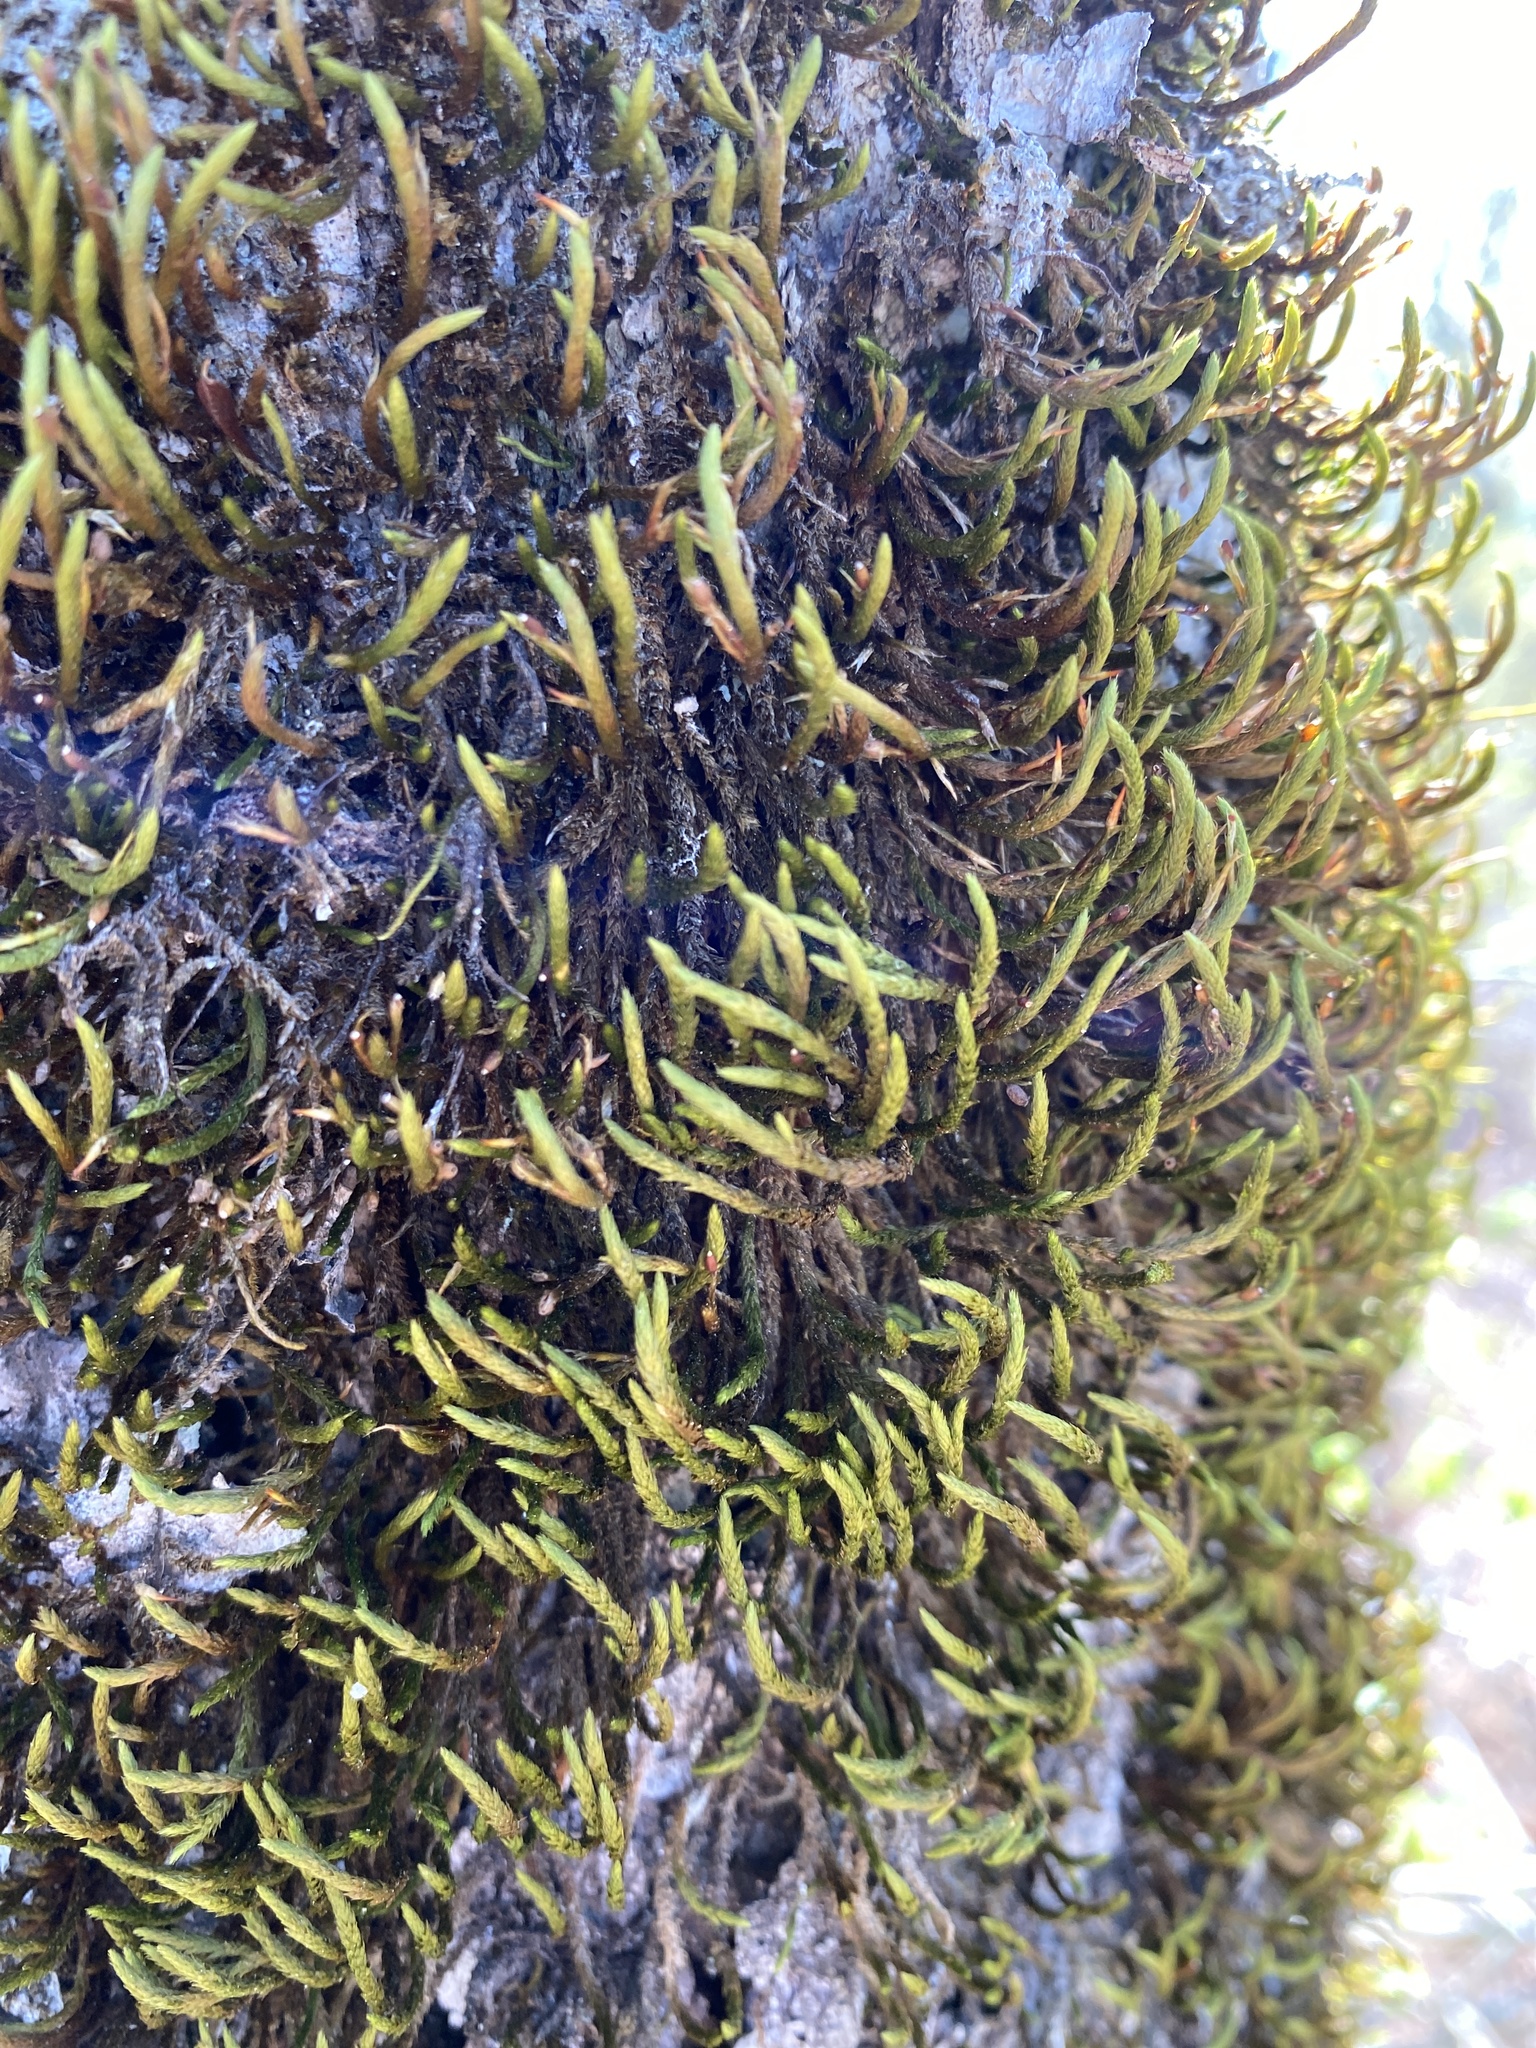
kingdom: Plantae
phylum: Bryophyta
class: Bryopsida
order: Hypnales
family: Leucodontaceae
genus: Leucodon
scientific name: Leucodon julaceus
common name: Smooth hook moss
